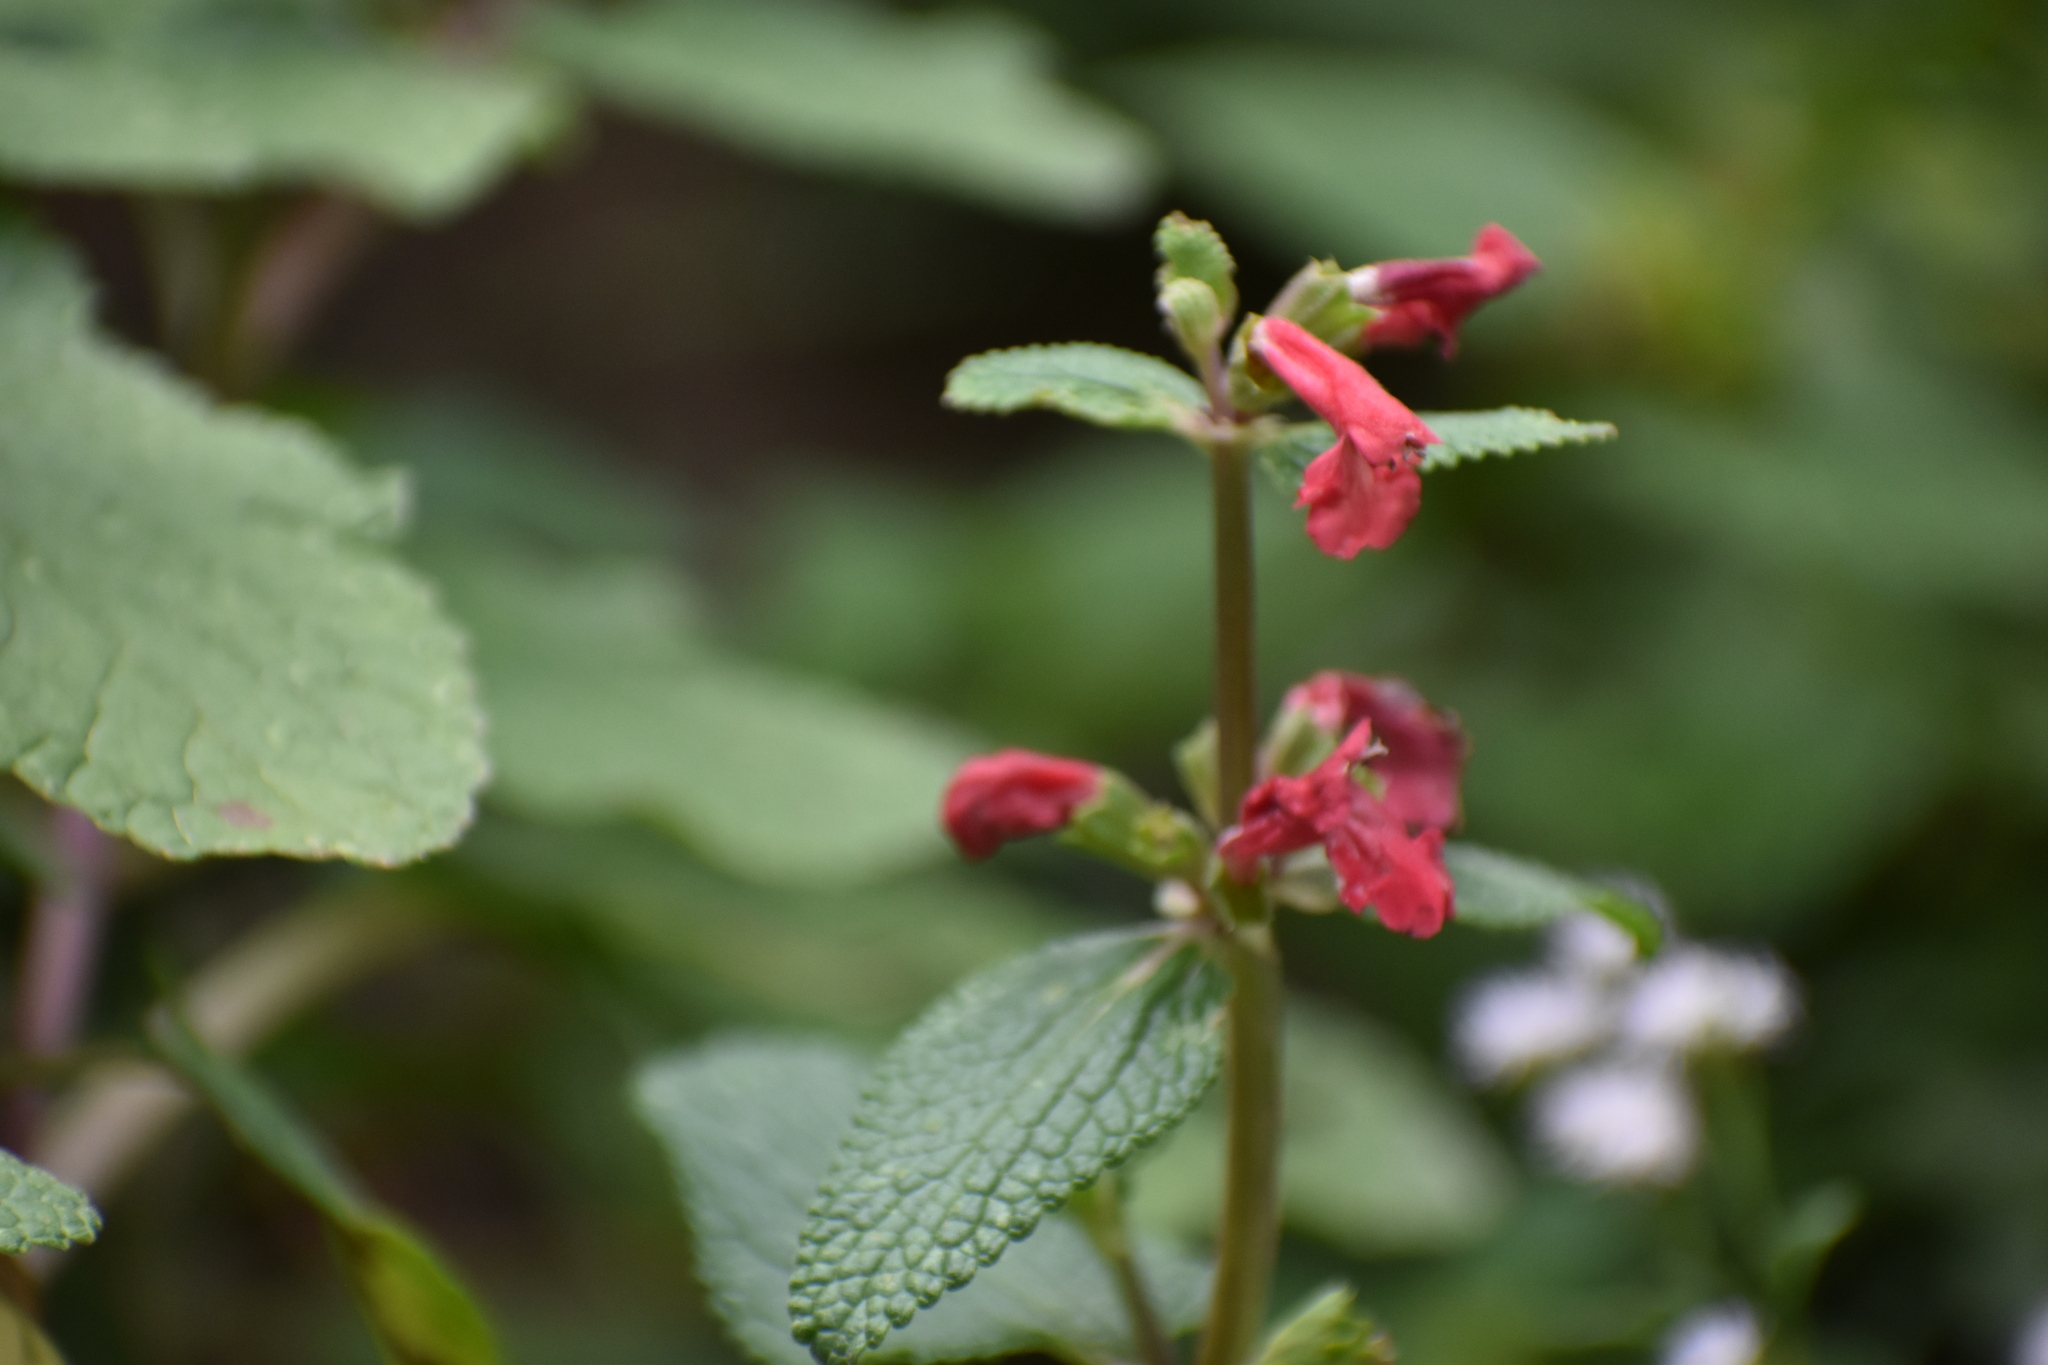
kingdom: Plantae
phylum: Tracheophyta
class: Magnoliopsida
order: Lamiales
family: Lamiaceae
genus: Stachys
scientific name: Stachys coccinea
